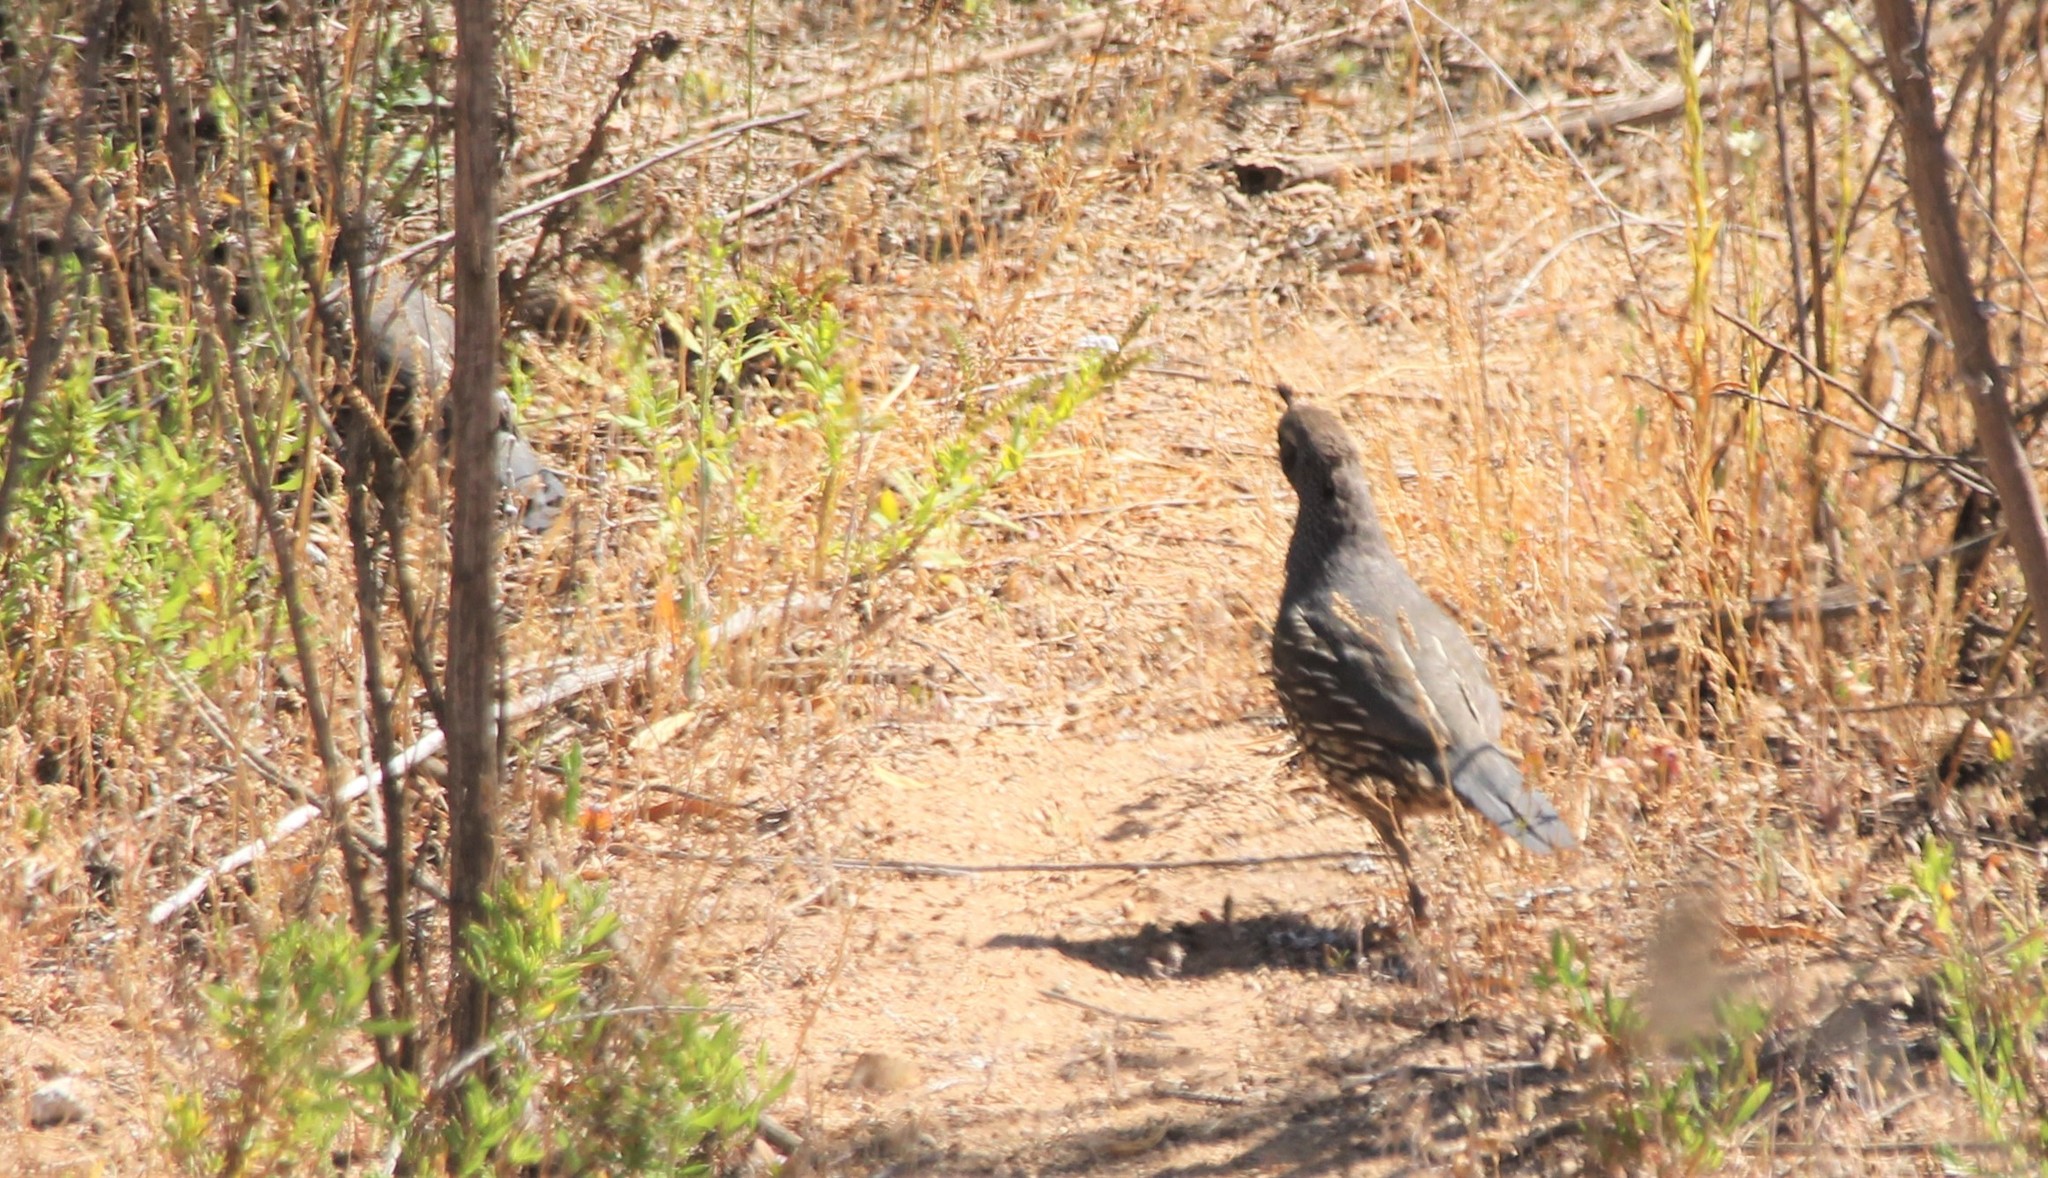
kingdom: Animalia
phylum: Chordata
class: Aves
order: Galliformes
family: Odontophoridae
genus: Callipepla
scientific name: Callipepla californica
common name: California quail
